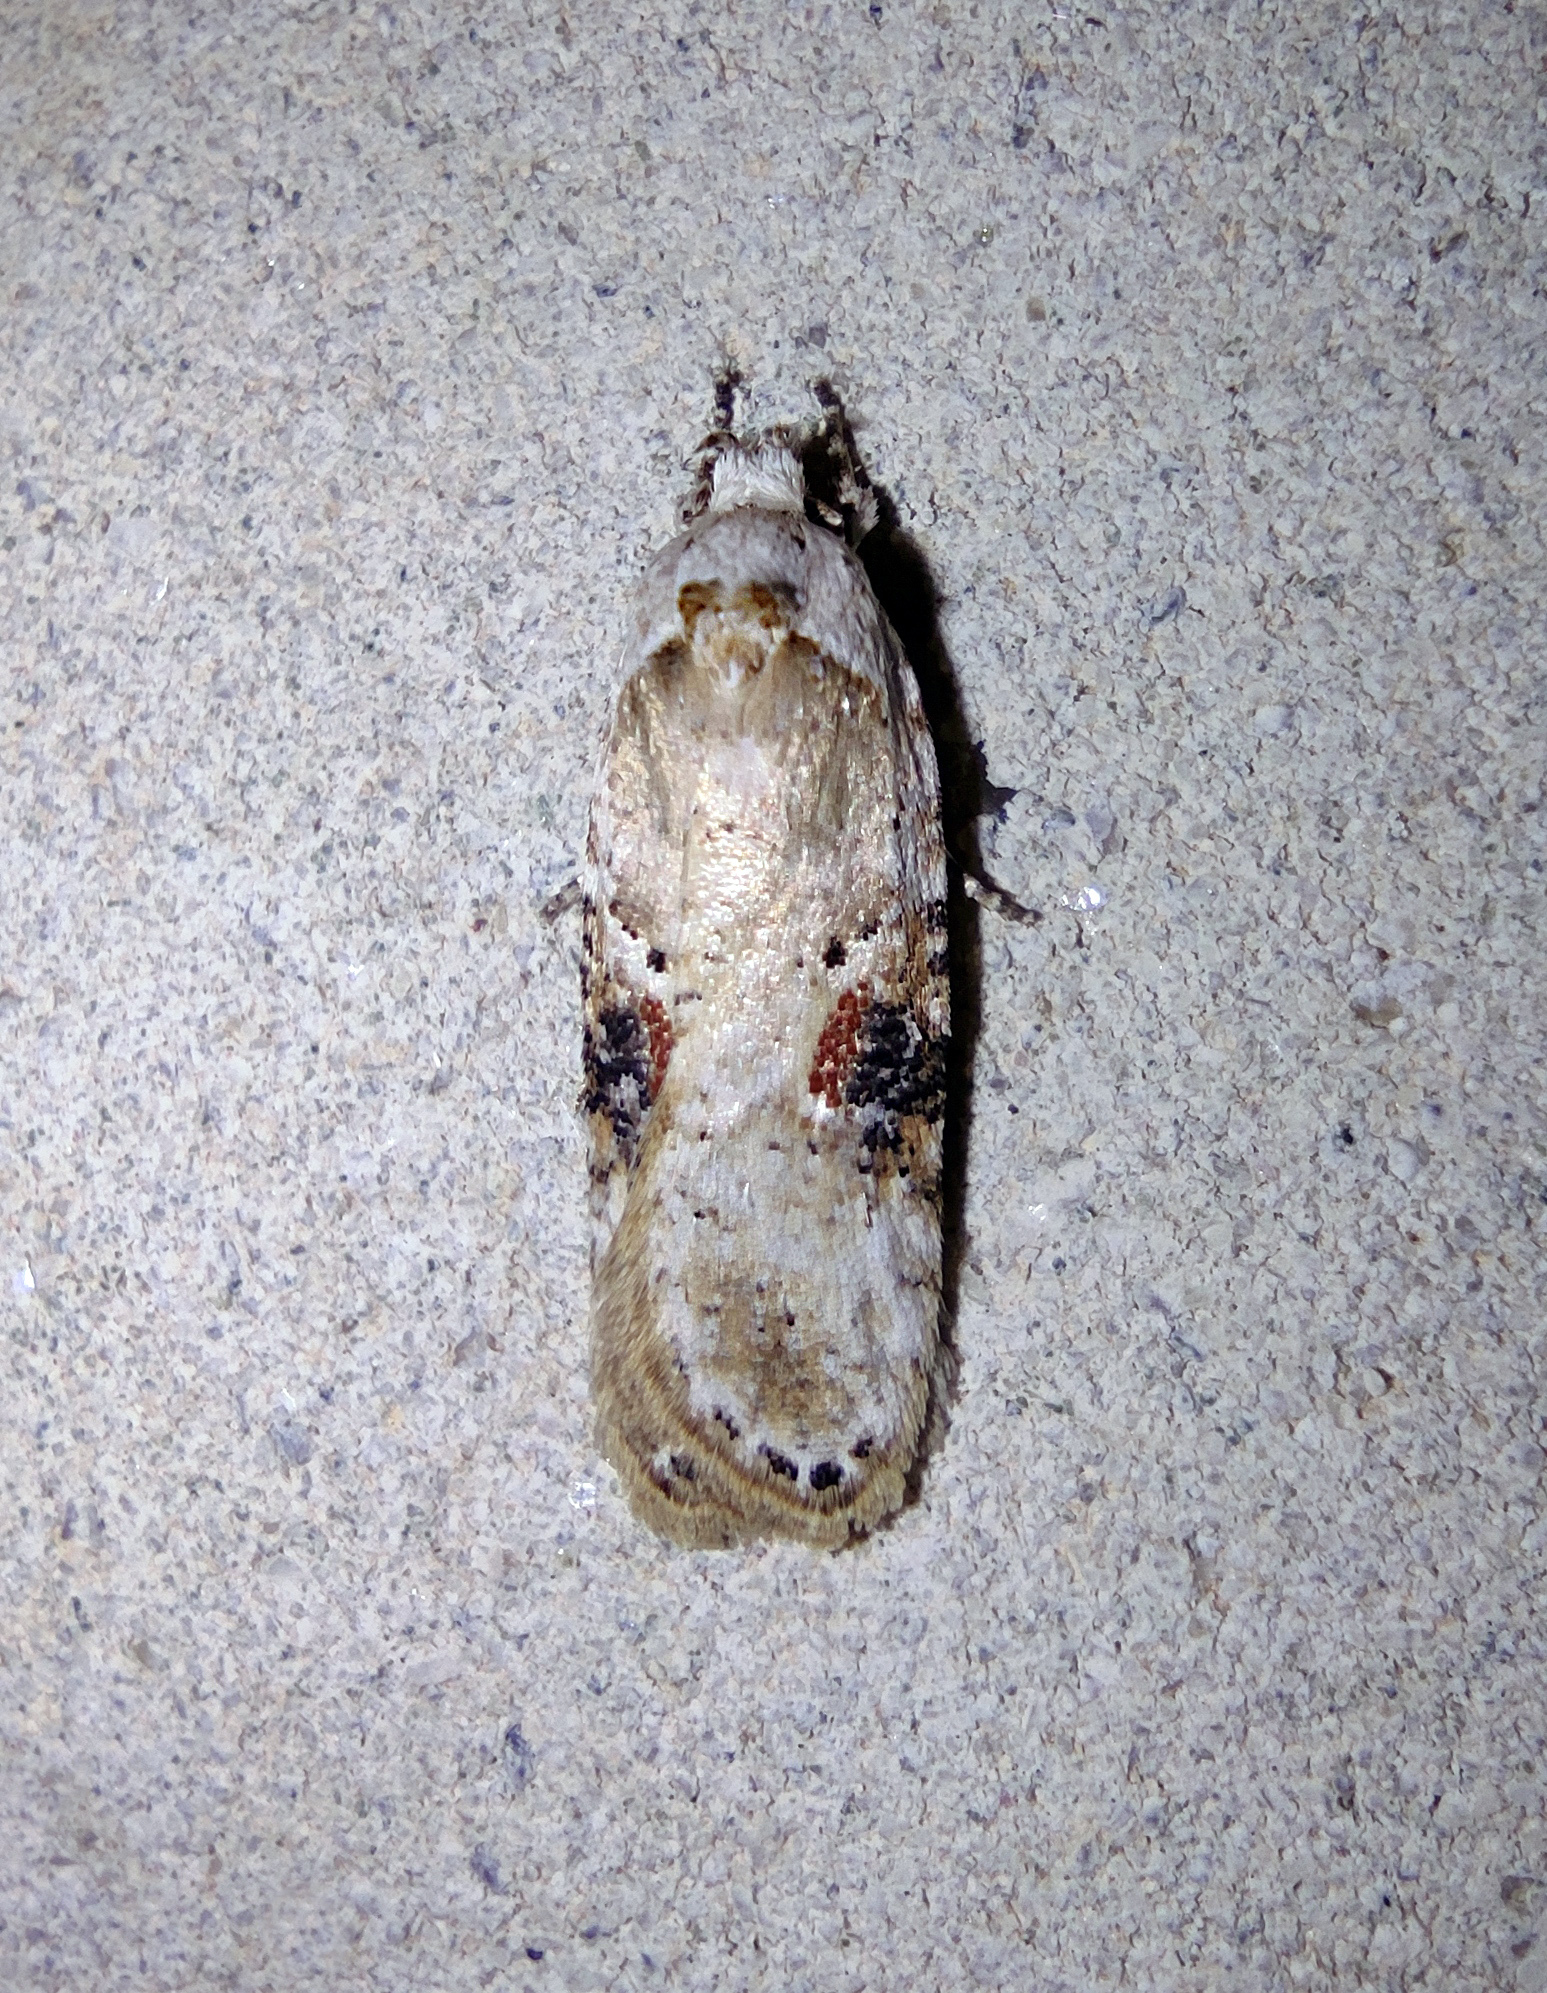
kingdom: Animalia
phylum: Arthropoda
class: Insecta
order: Lepidoptera
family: Depressariidae
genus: Agonopterix
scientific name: Agonopterix alstroemeriana
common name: Moth
